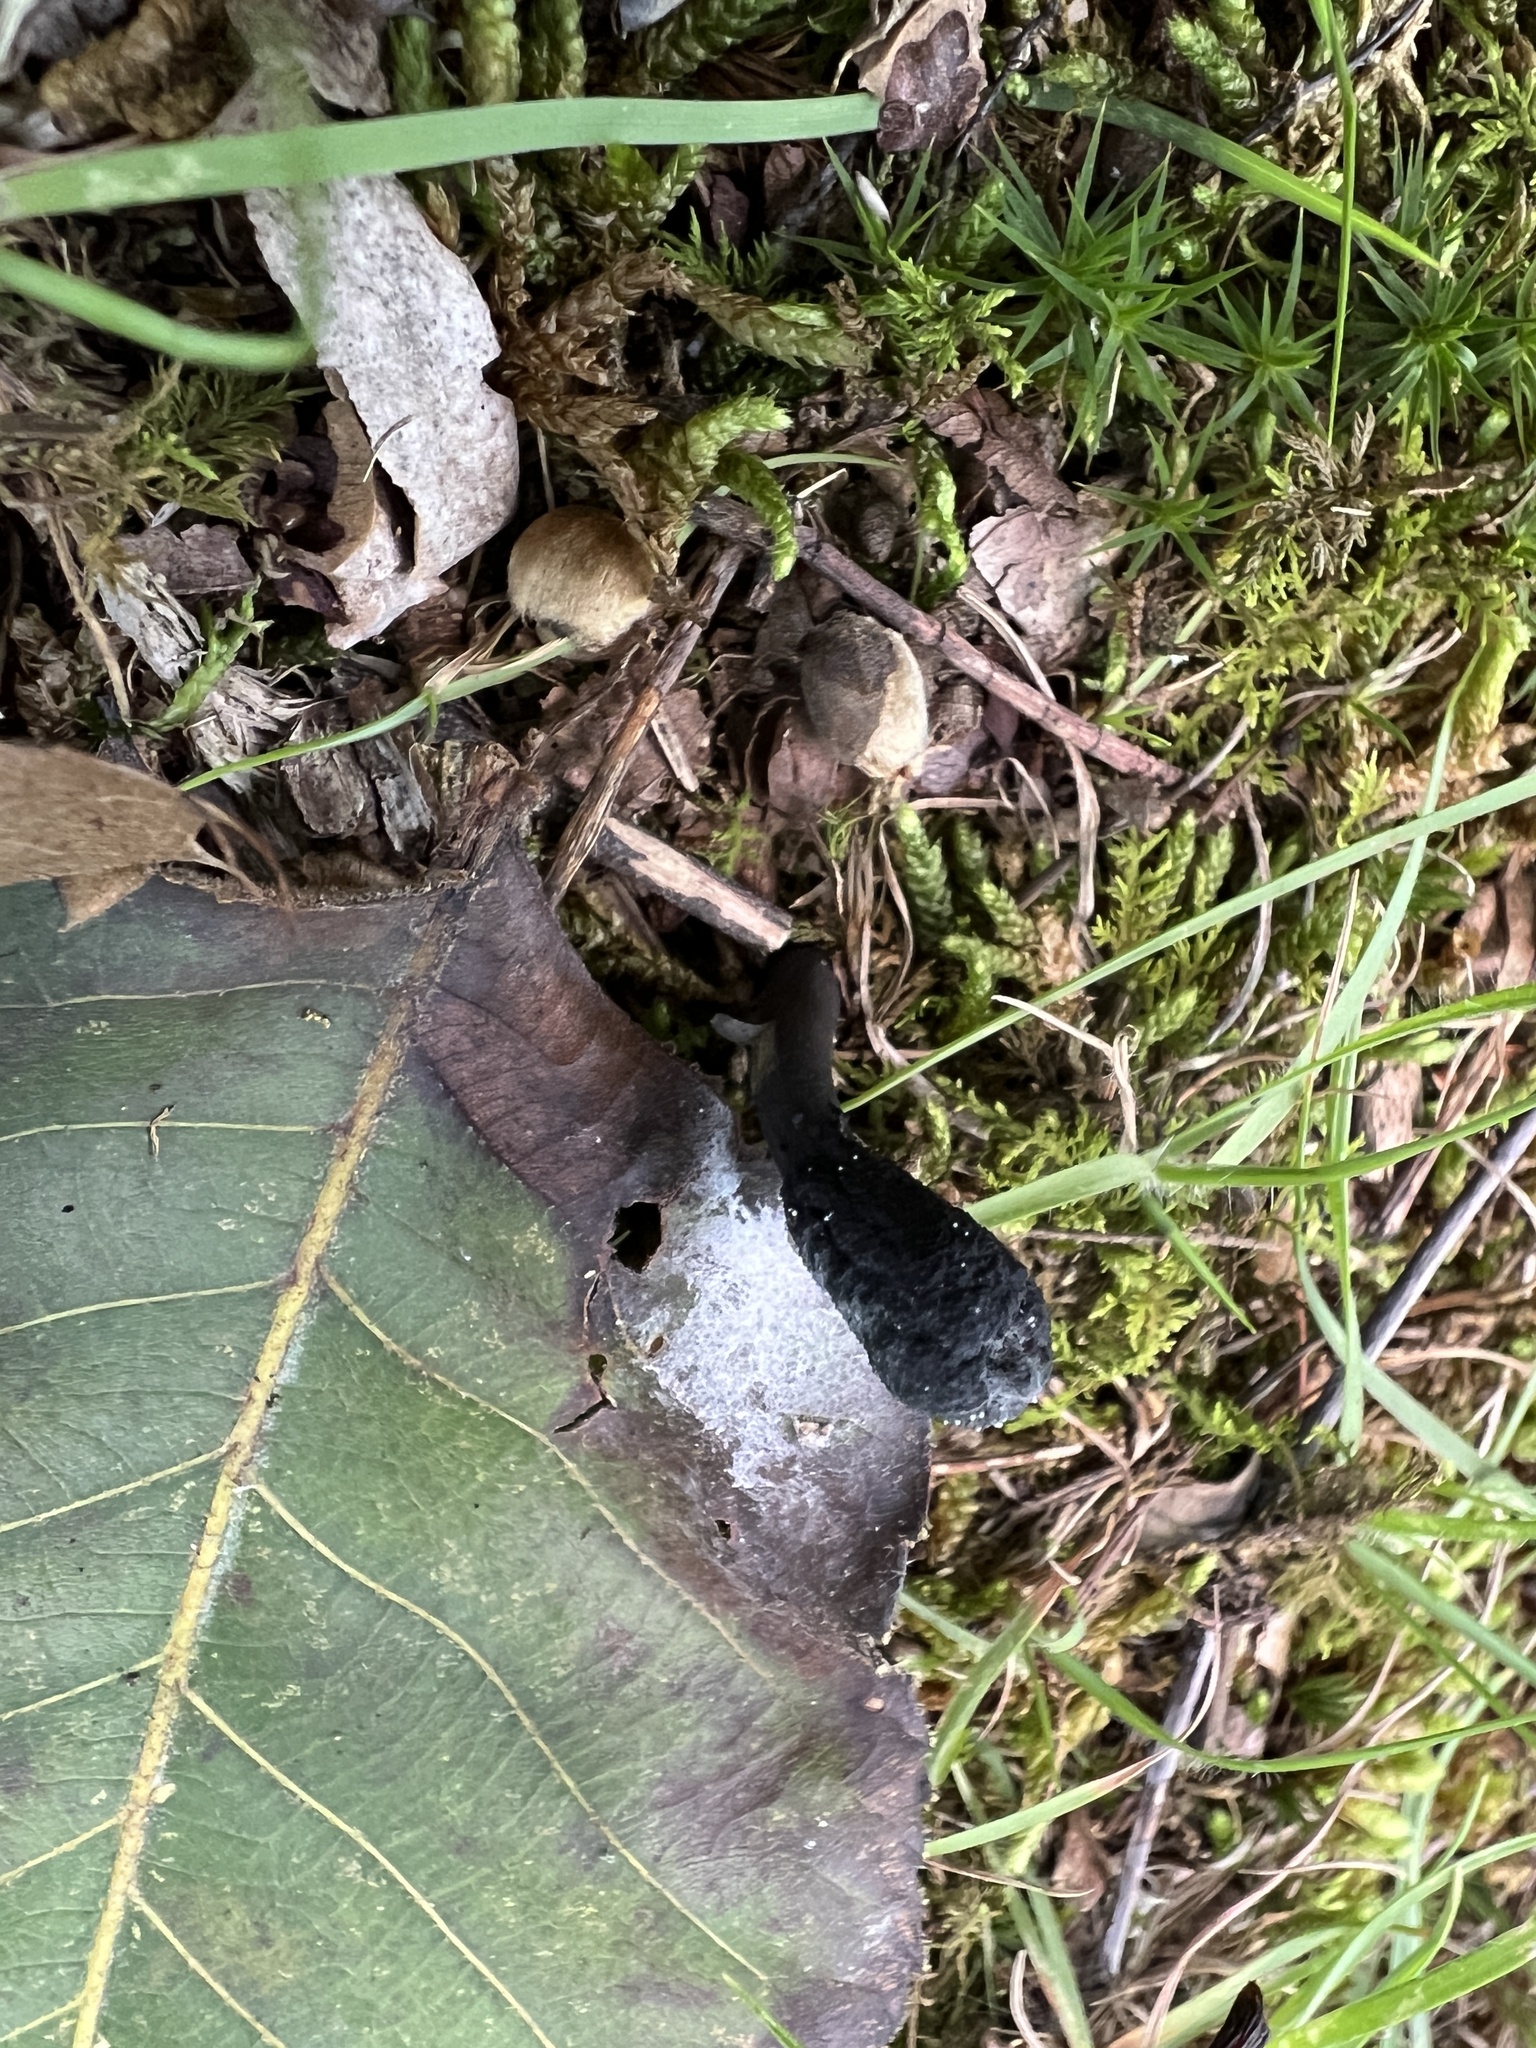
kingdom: Fungi
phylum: Ascomycota
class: Sordariomycetes
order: Hypocreales
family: Ophiocordycipitaceae
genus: Tolypocladium
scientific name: Tolypocladium ophioglossoides
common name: Snaketongue truffleclub
